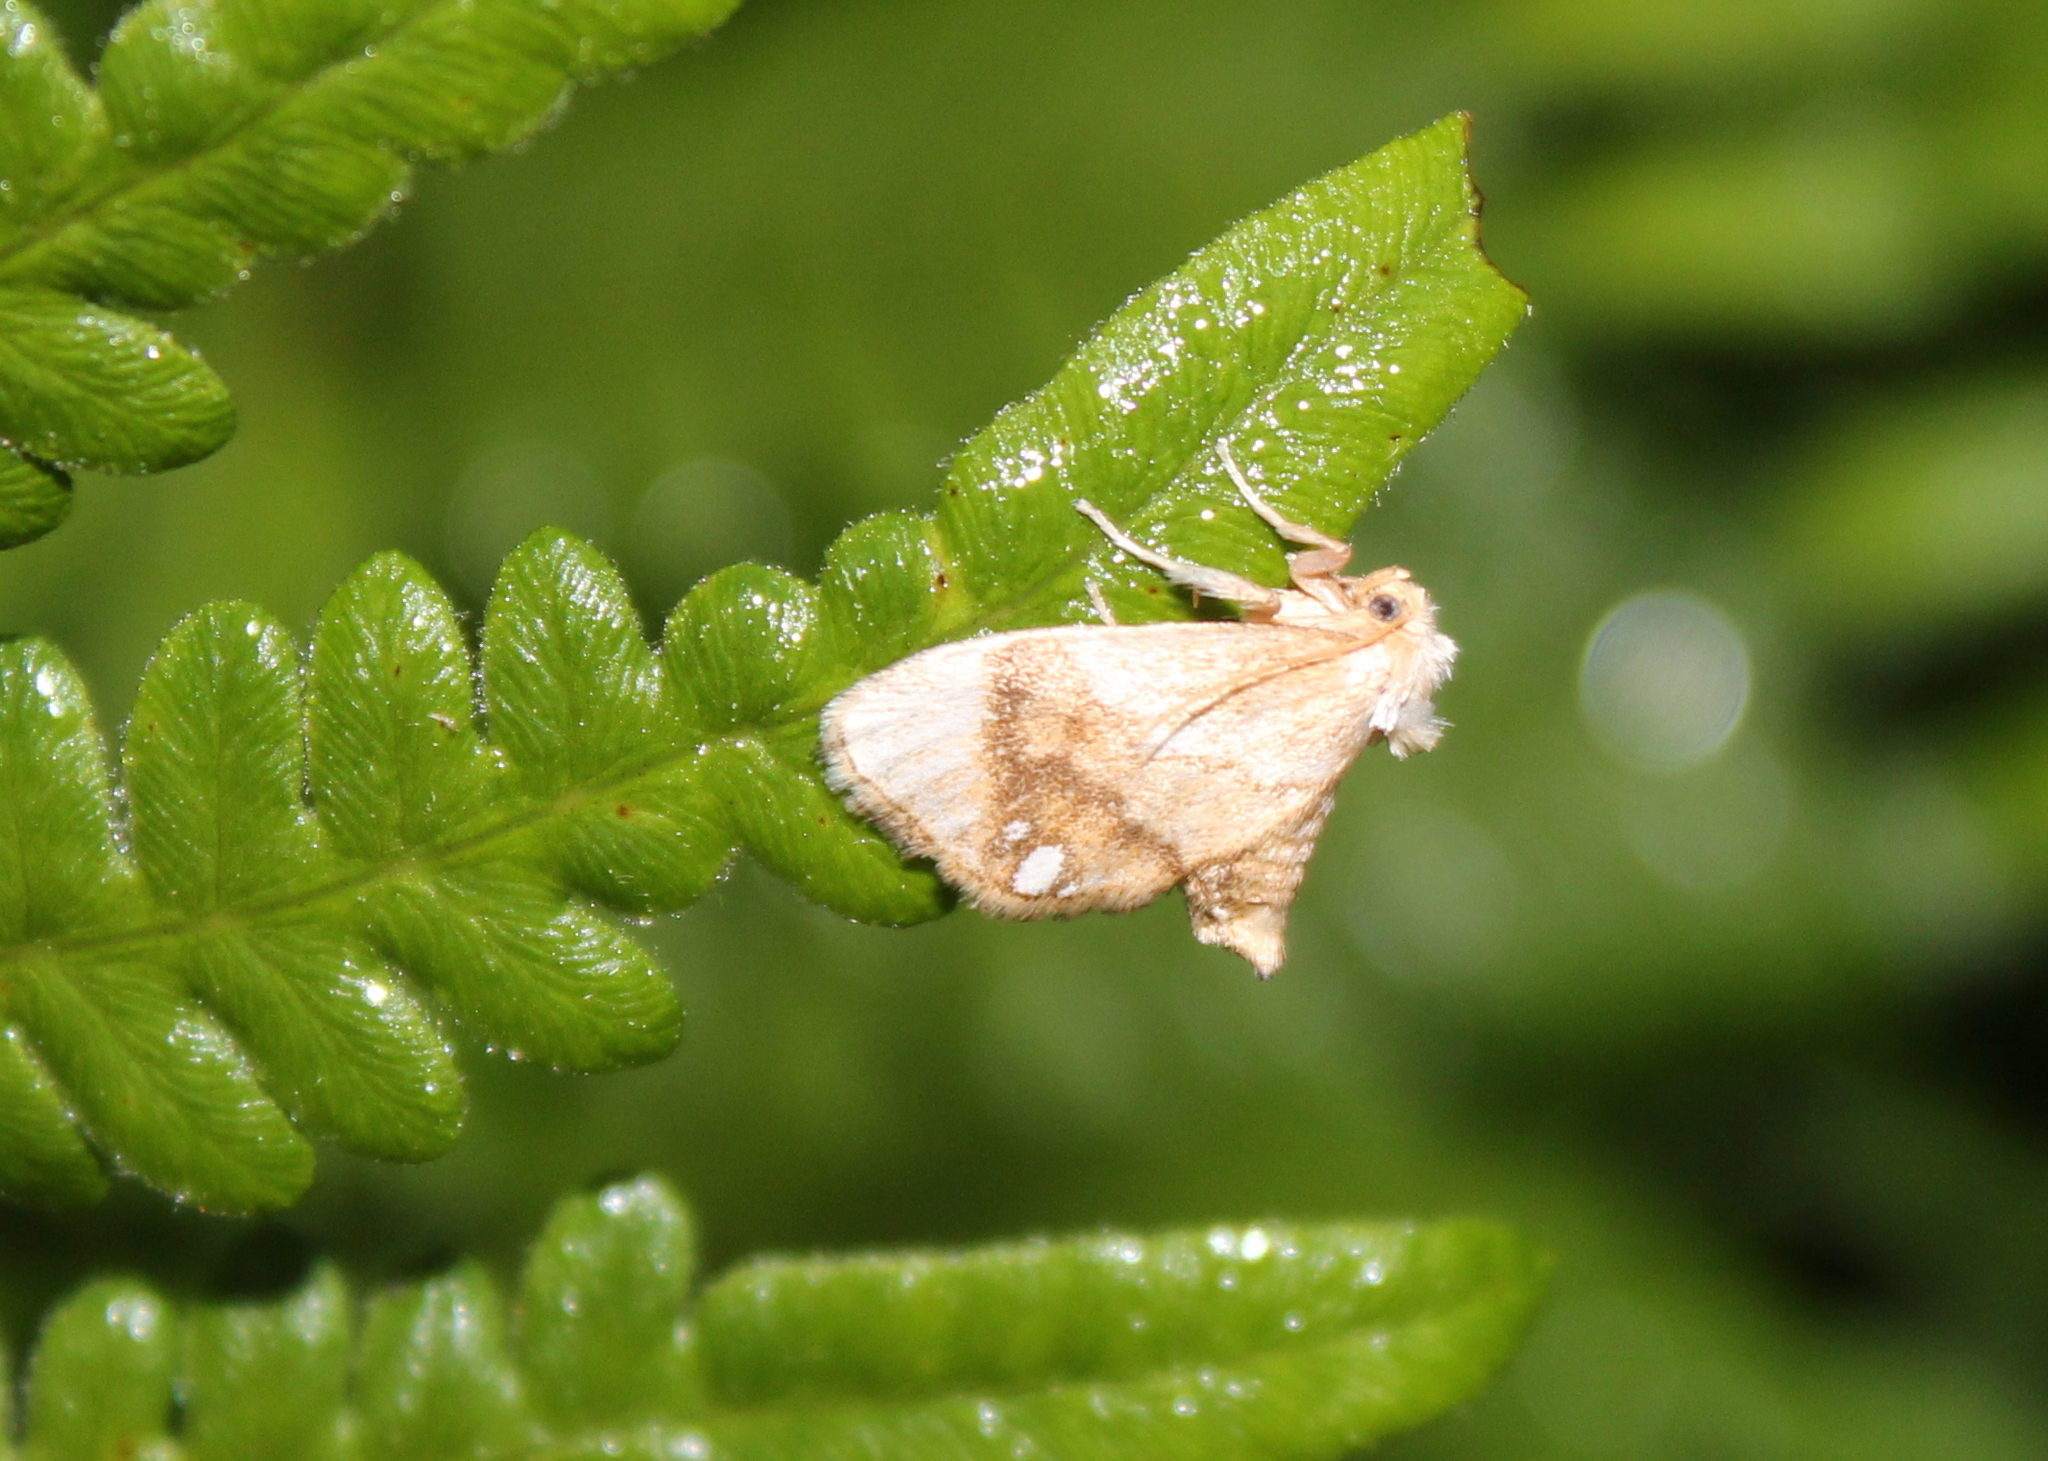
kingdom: Animalia
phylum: Arthropoda
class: Insecta
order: Lepidoptera
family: Limacodidae
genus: Packardia
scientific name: Packardia geminata
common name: Jeweled tailed slug moth
